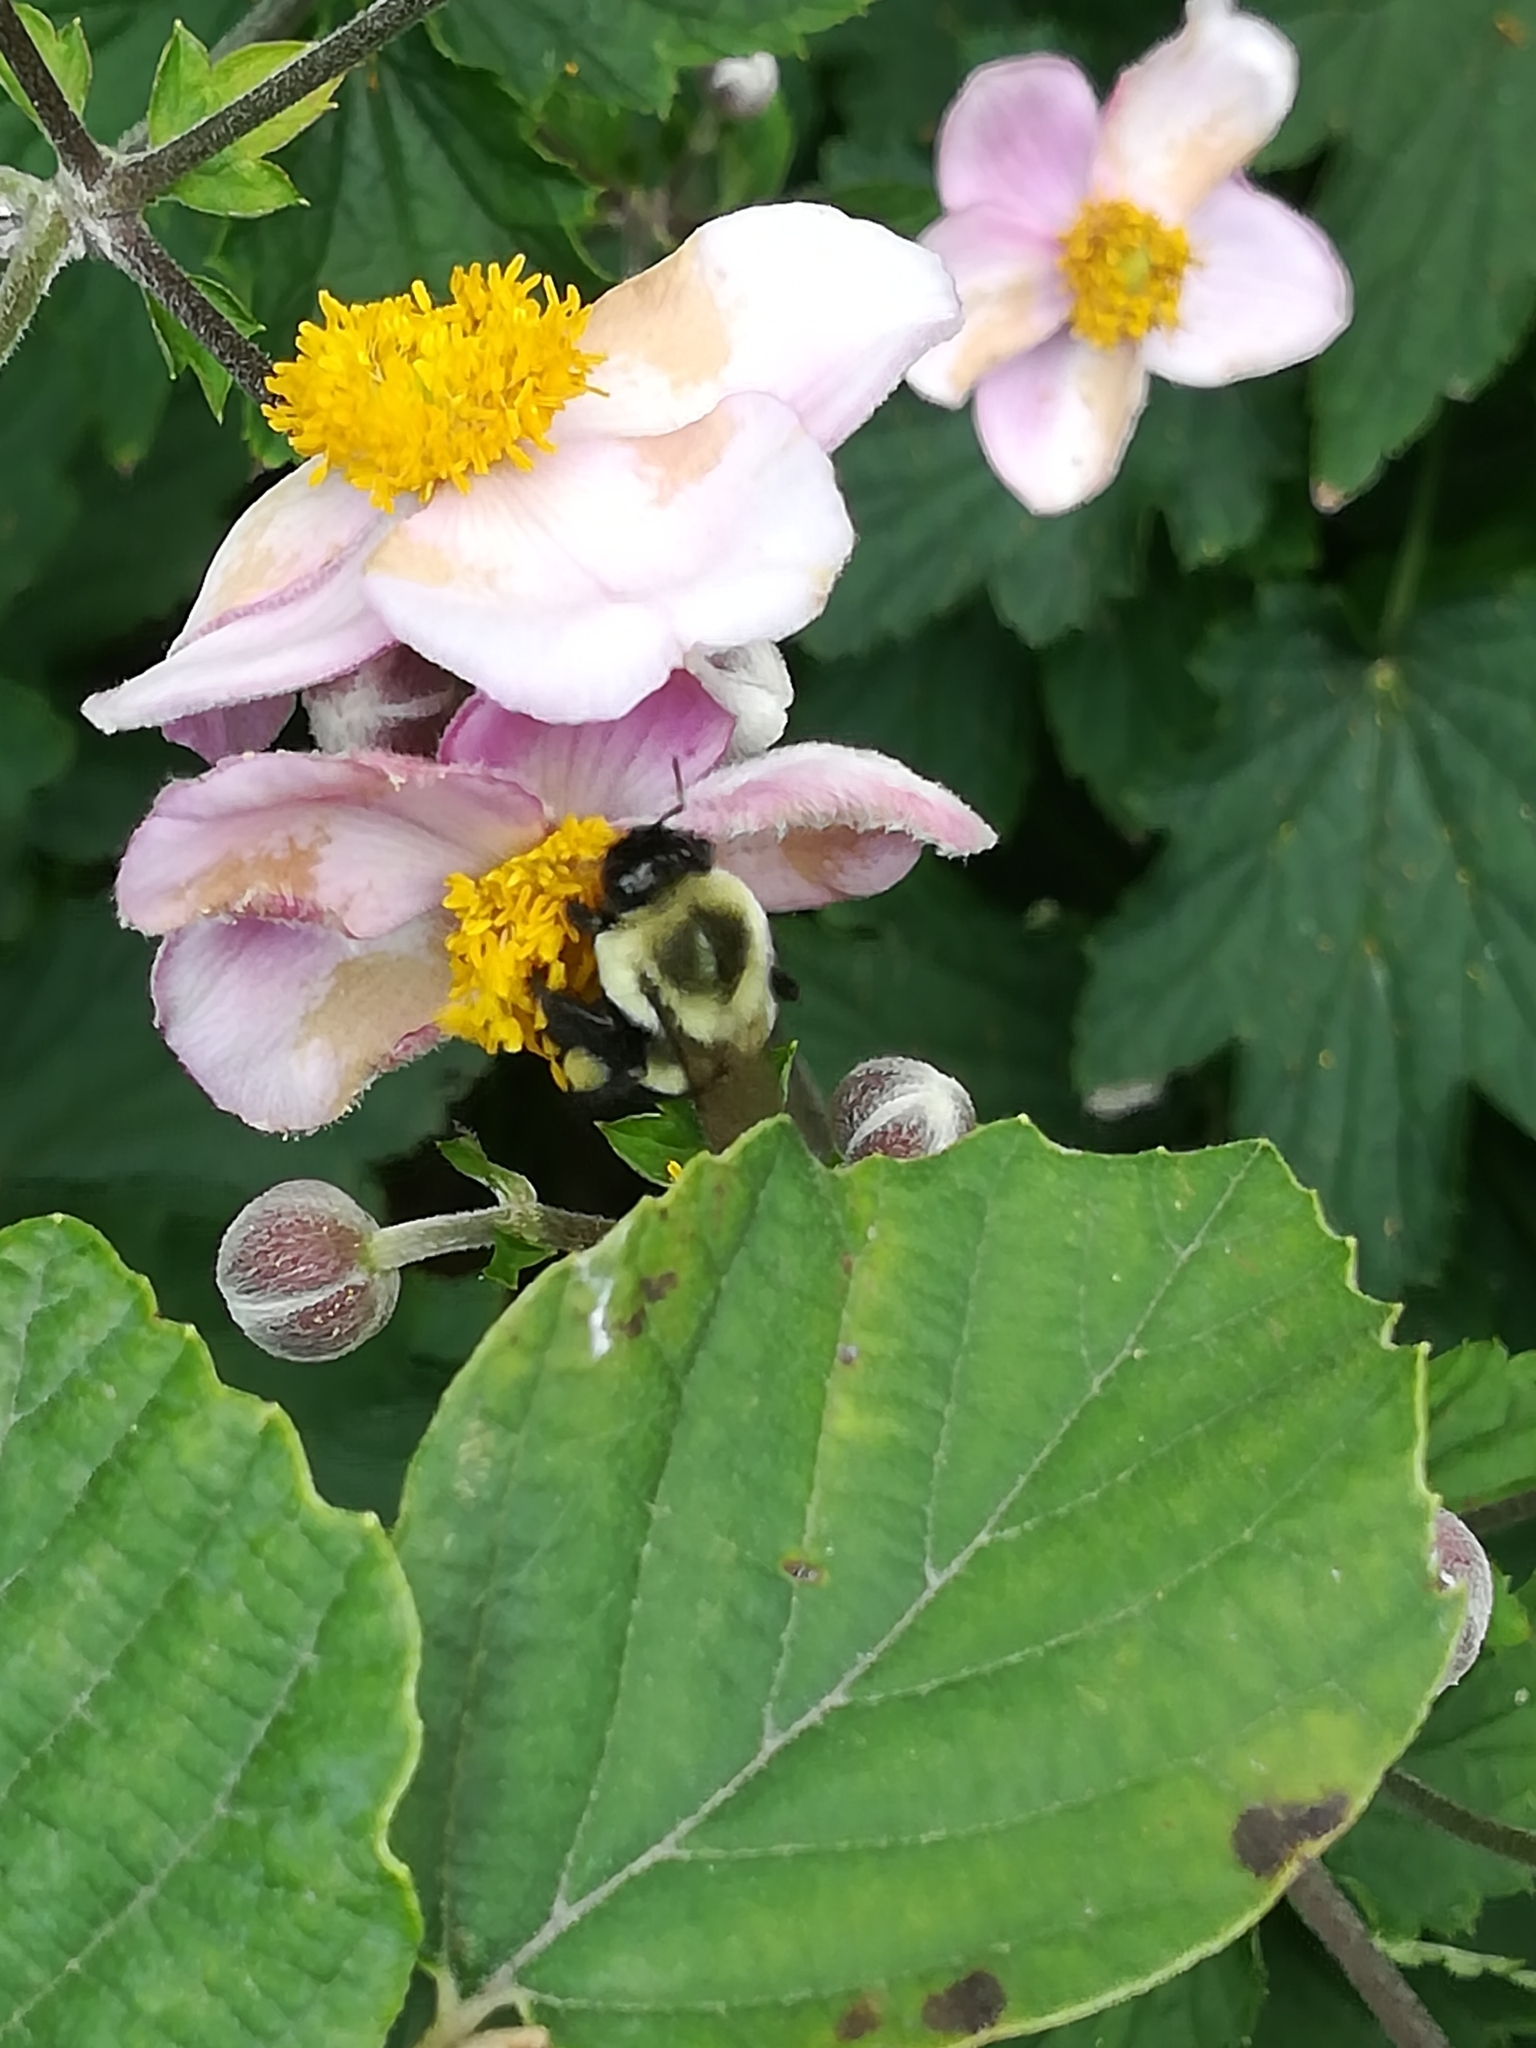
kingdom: Animalia
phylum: Arthropoda
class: Insecta
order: Hymenoptera
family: Apidae
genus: Bombus
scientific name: Bombus impatiens
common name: Common eastern bumble bee
